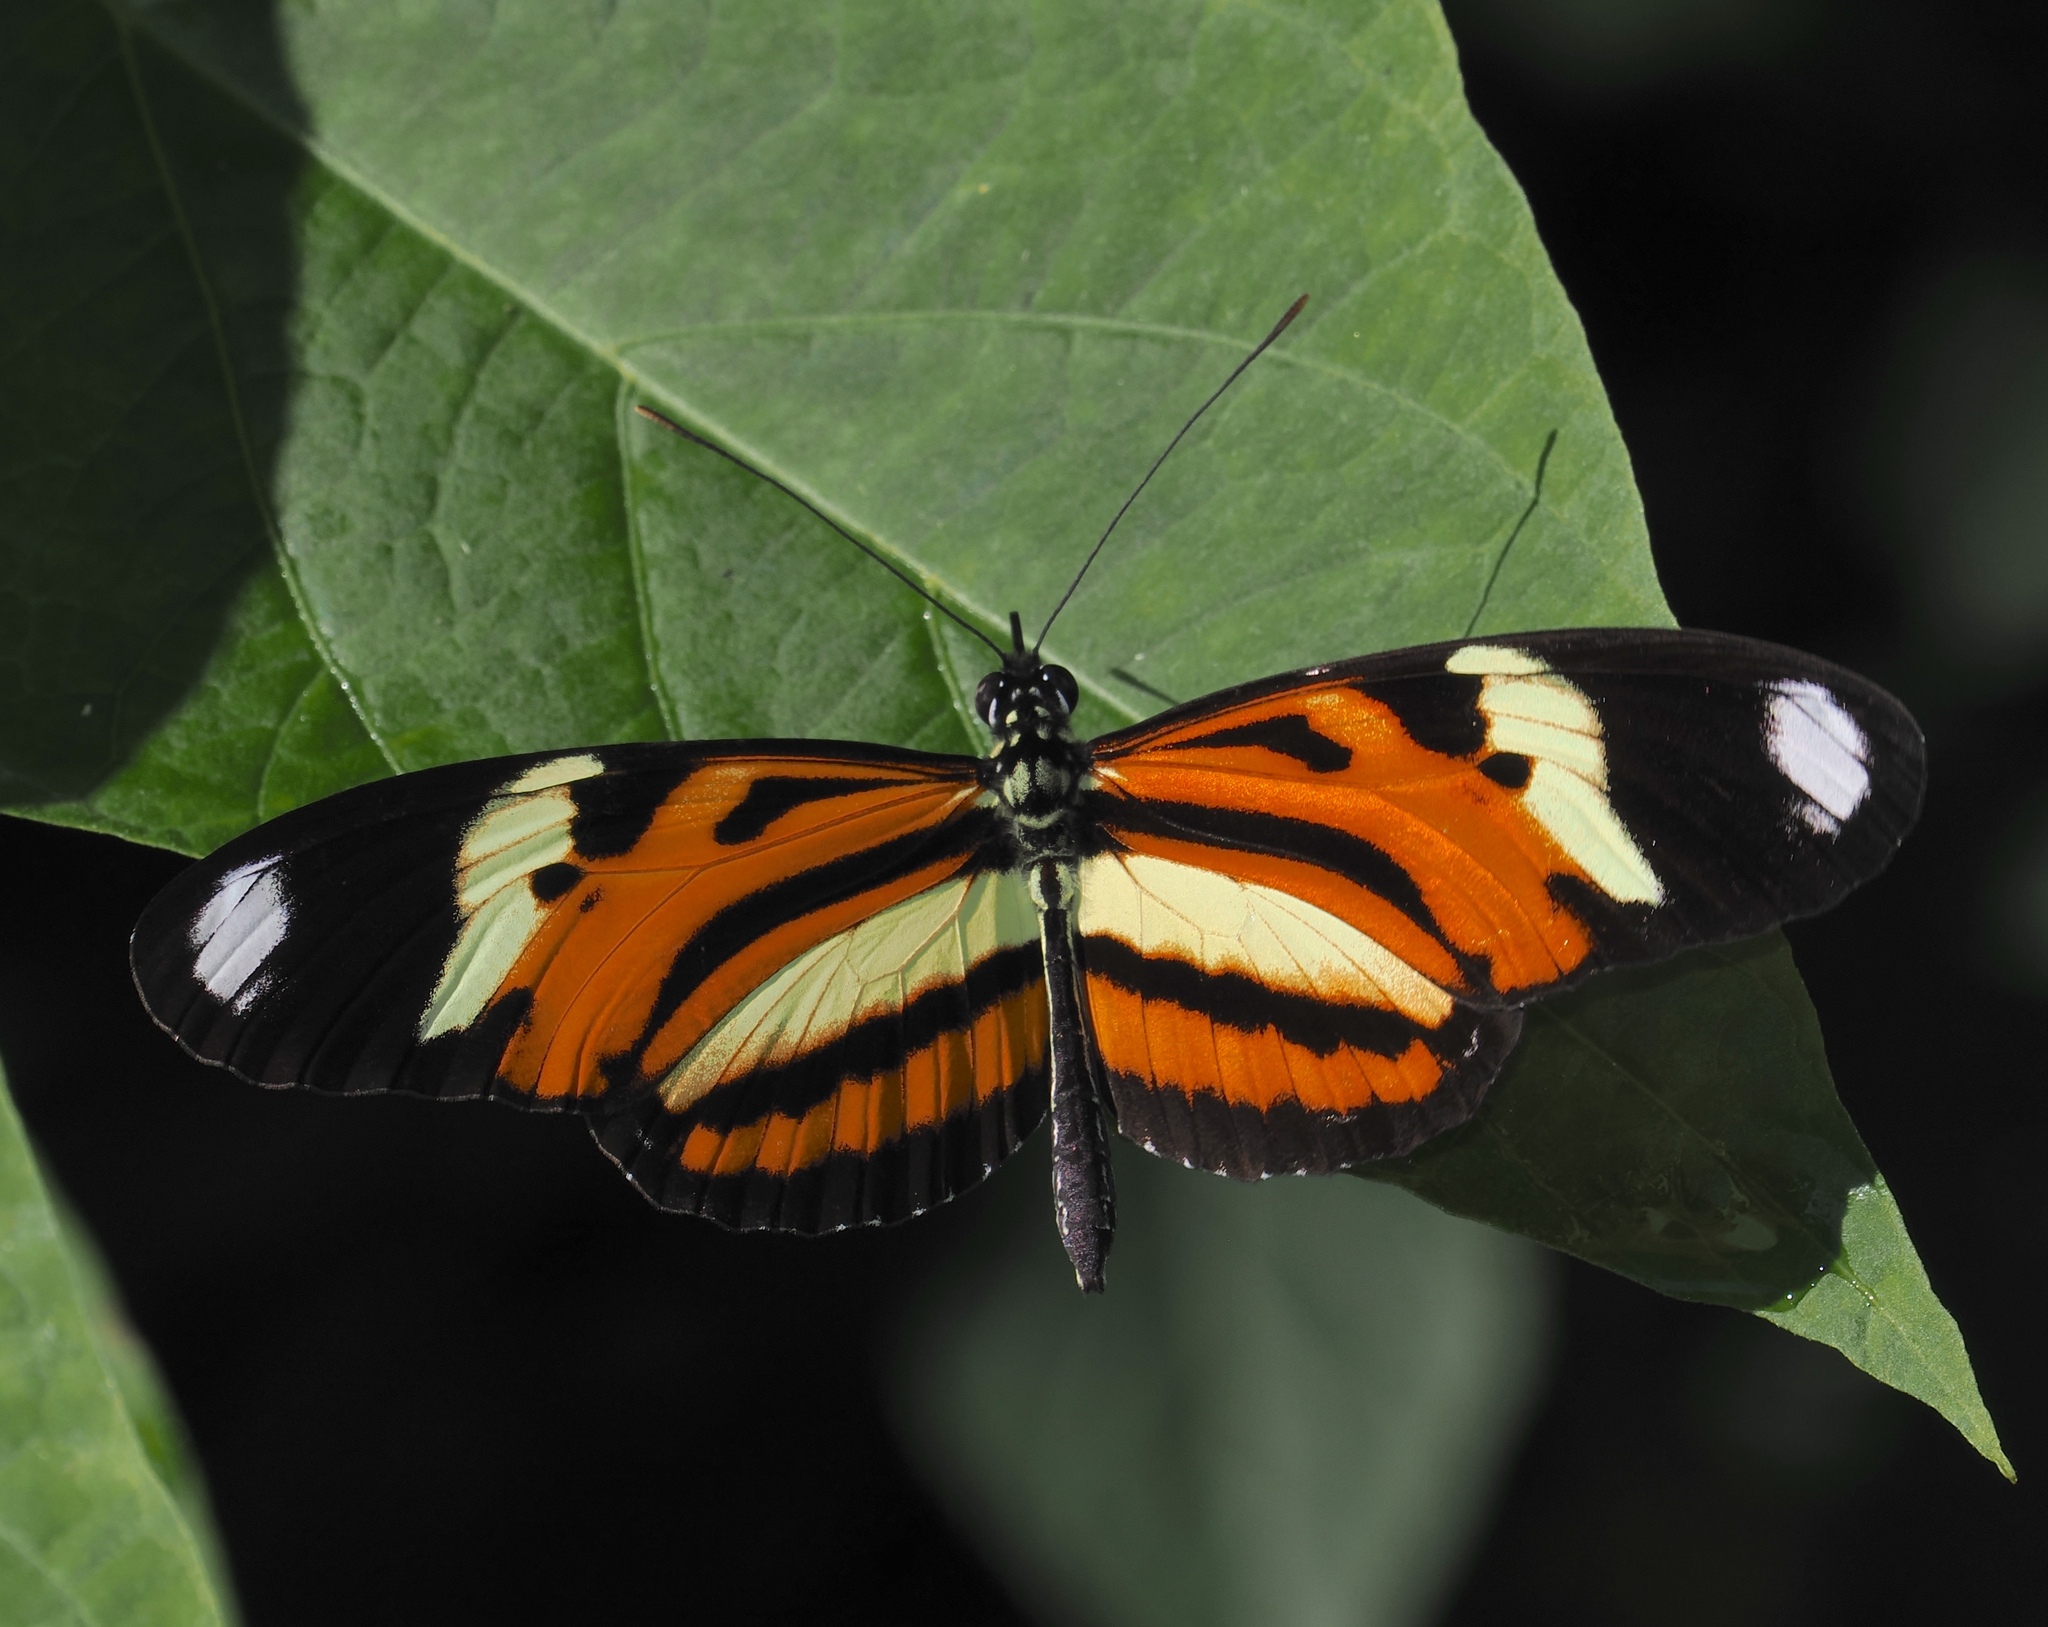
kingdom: Animalia
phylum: Arthropoda
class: Insecta
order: Lepidoptera
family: Nymphalidae
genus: Heliconius
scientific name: Heliconius ethilla
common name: Ethilia longwing
